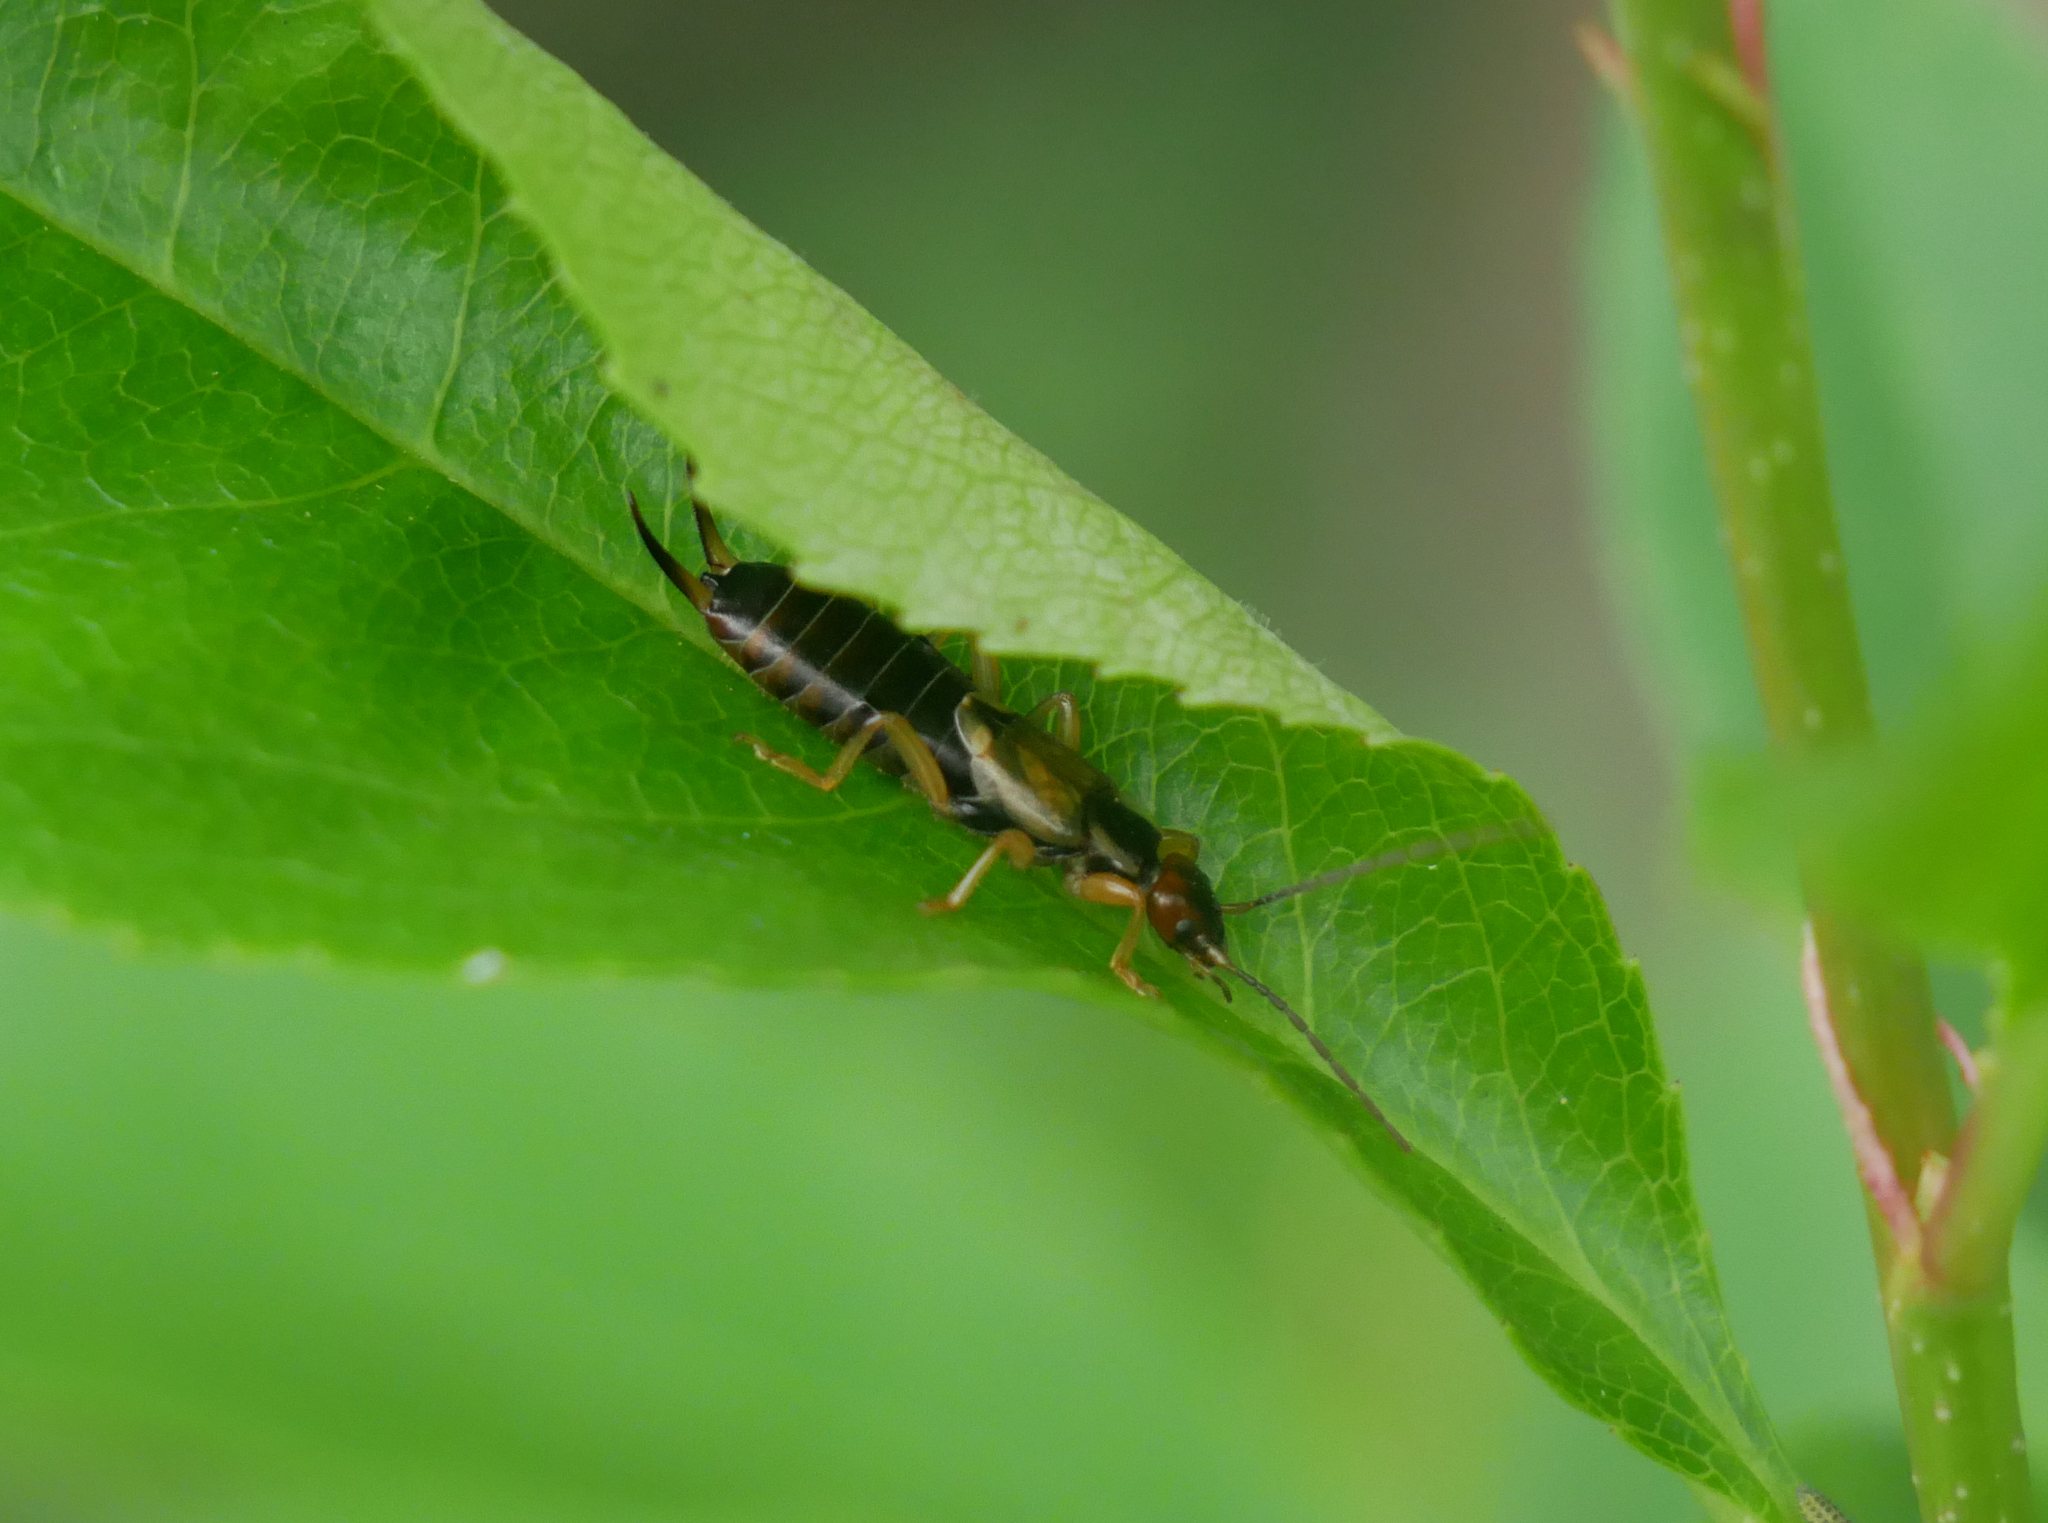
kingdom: Animalia
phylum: Arthropoda
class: Insecta
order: Dermaptera
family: Forficulidae
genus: Forficula
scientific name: Forficula
